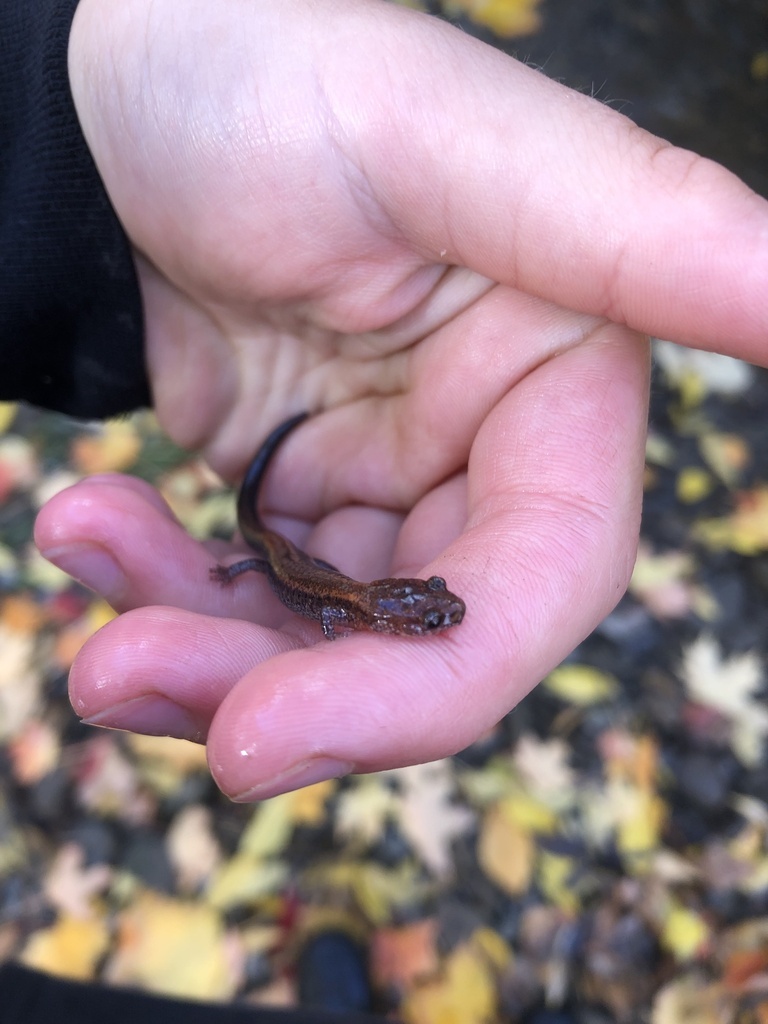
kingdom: Animalia
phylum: Chordata
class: Amphibia
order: Caudata
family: Plethodontidae
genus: Plethodon
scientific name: Plethodon cinereus
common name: Redback salamander
